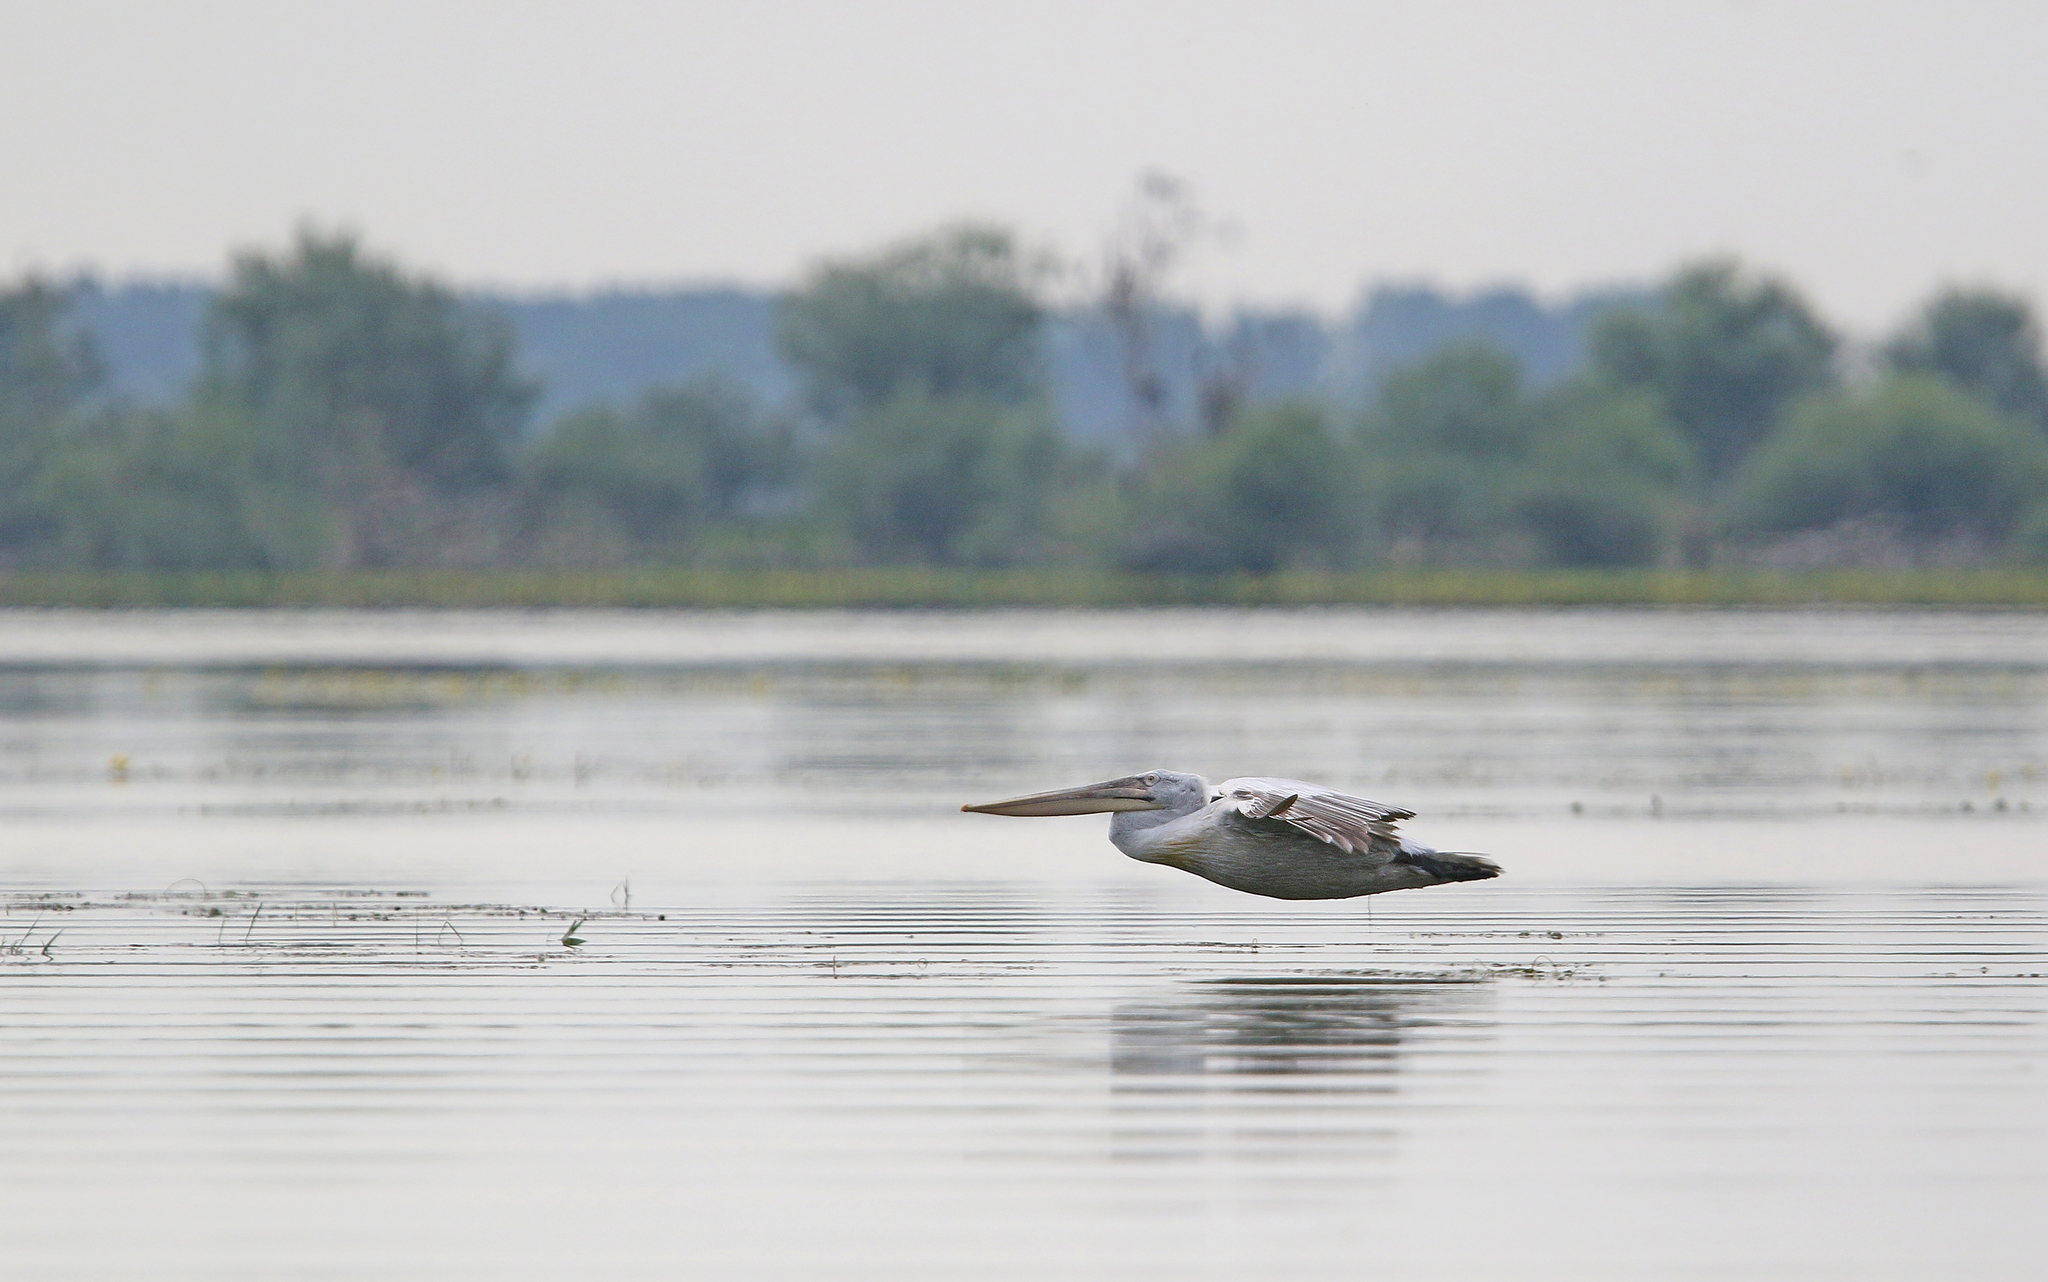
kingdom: Animalia
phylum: Chordata
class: Aves
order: Pelecaniformes
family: Pelecanidae
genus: Pelecanus
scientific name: Pelecanus crispus
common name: Dalmatian pelican
